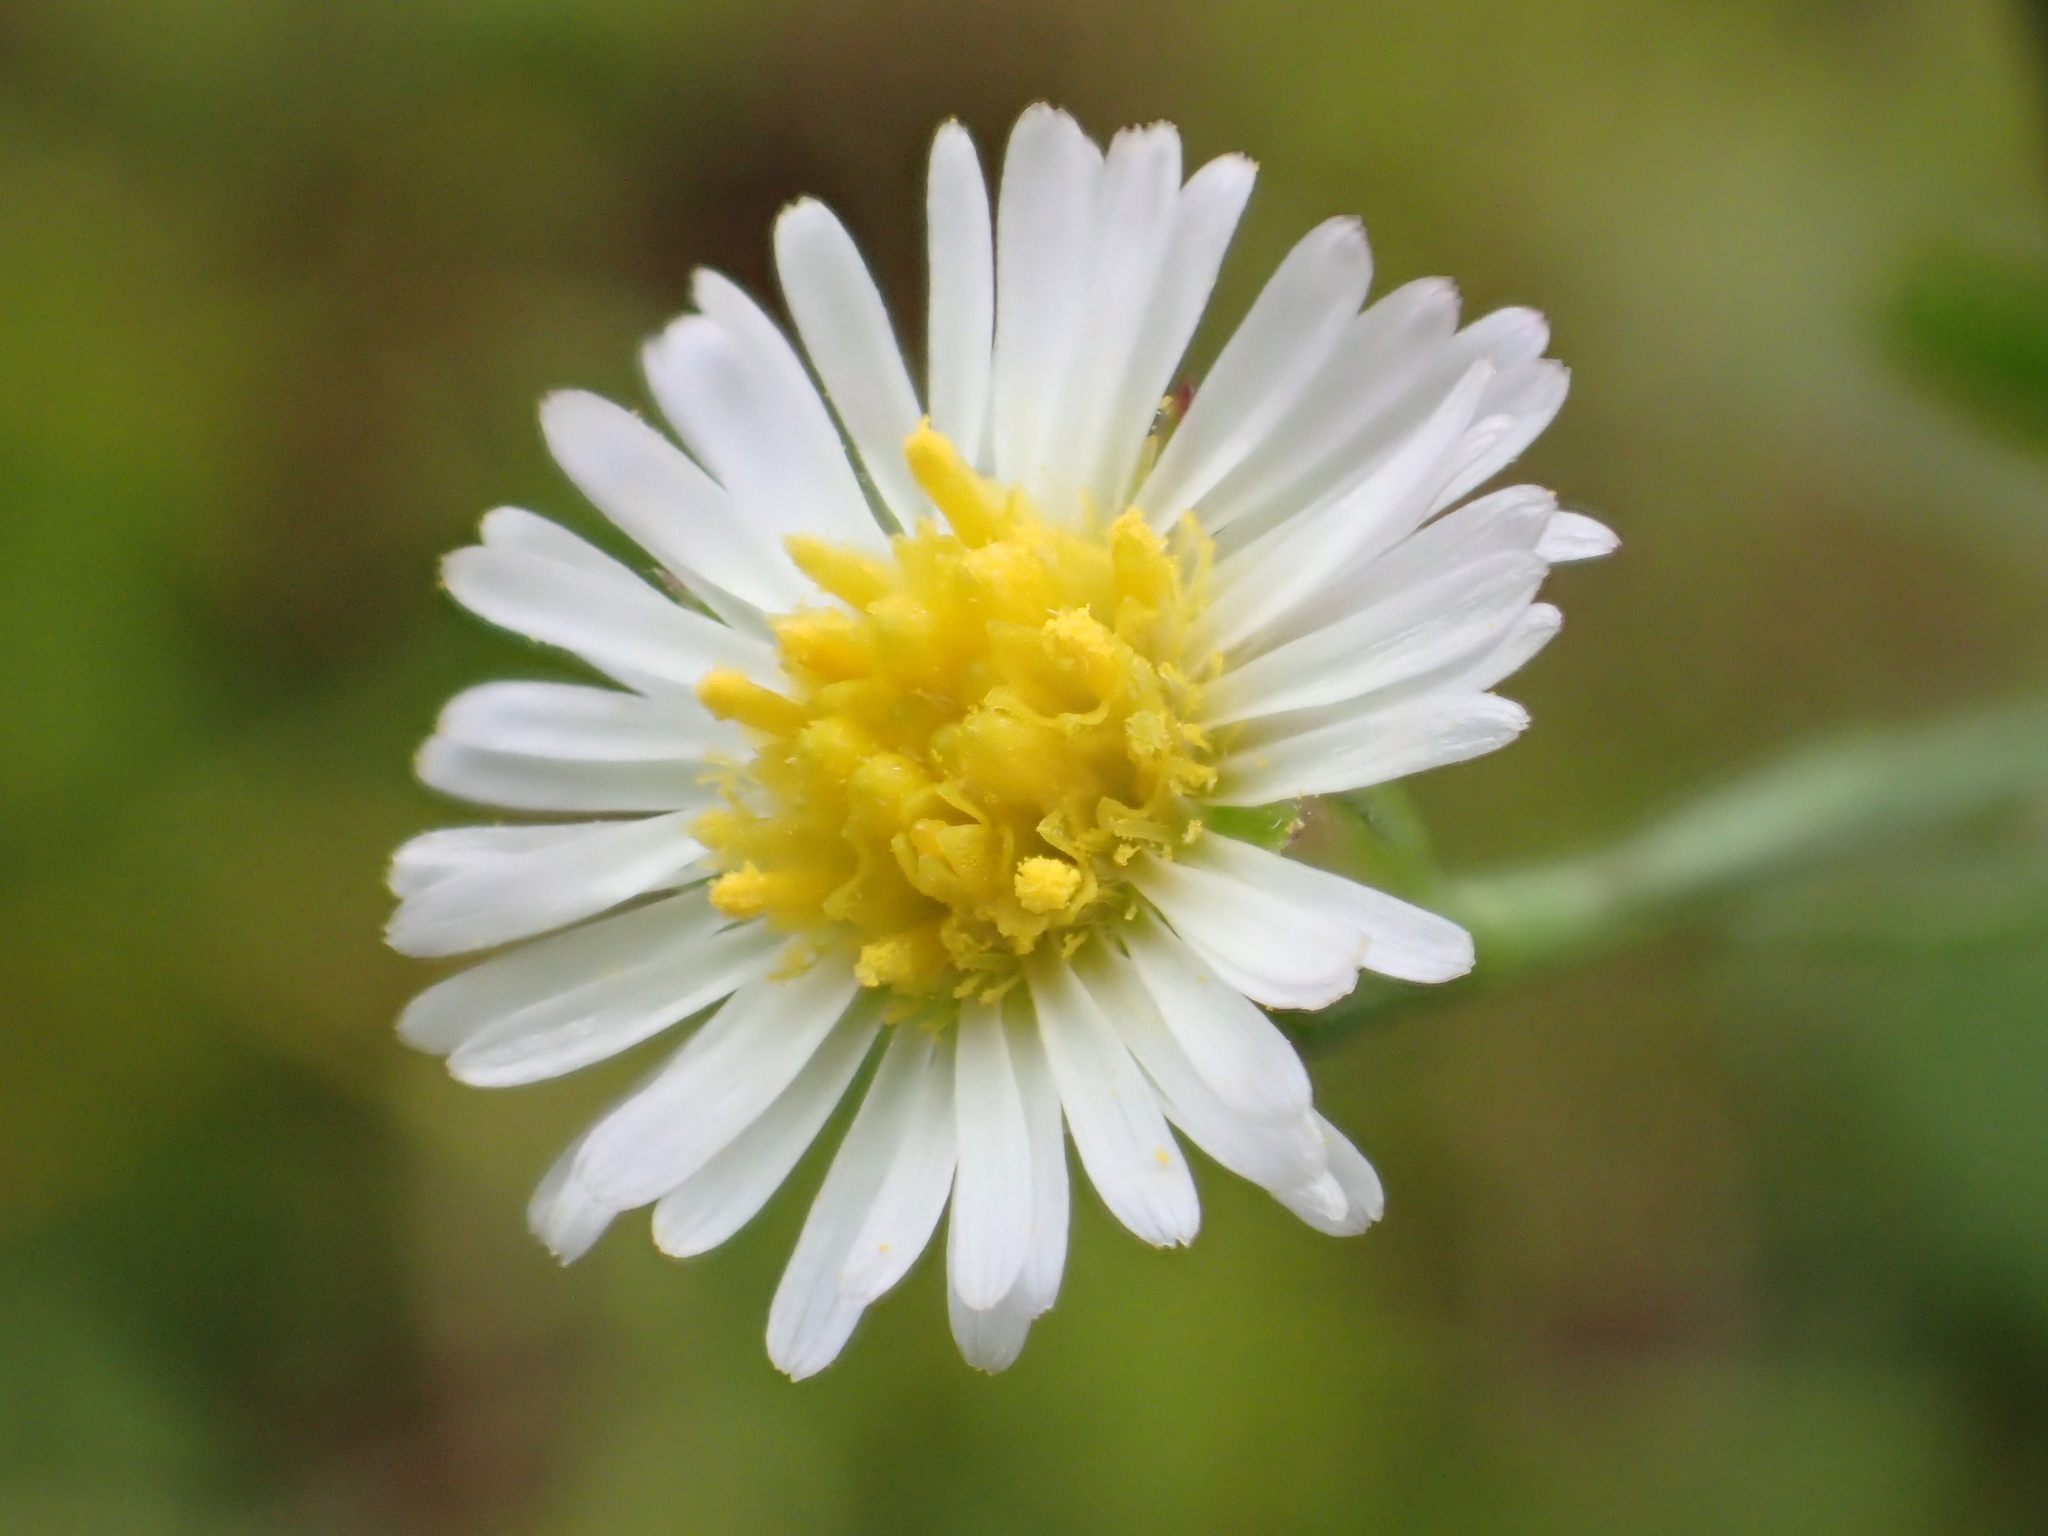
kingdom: Plantae
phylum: Tracheophyta
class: Magnoliopsida
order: Asterales
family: Asteraceae
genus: Symphyotrichum
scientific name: Symphyotrichum subulatum
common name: Annual saltmarsh aster
